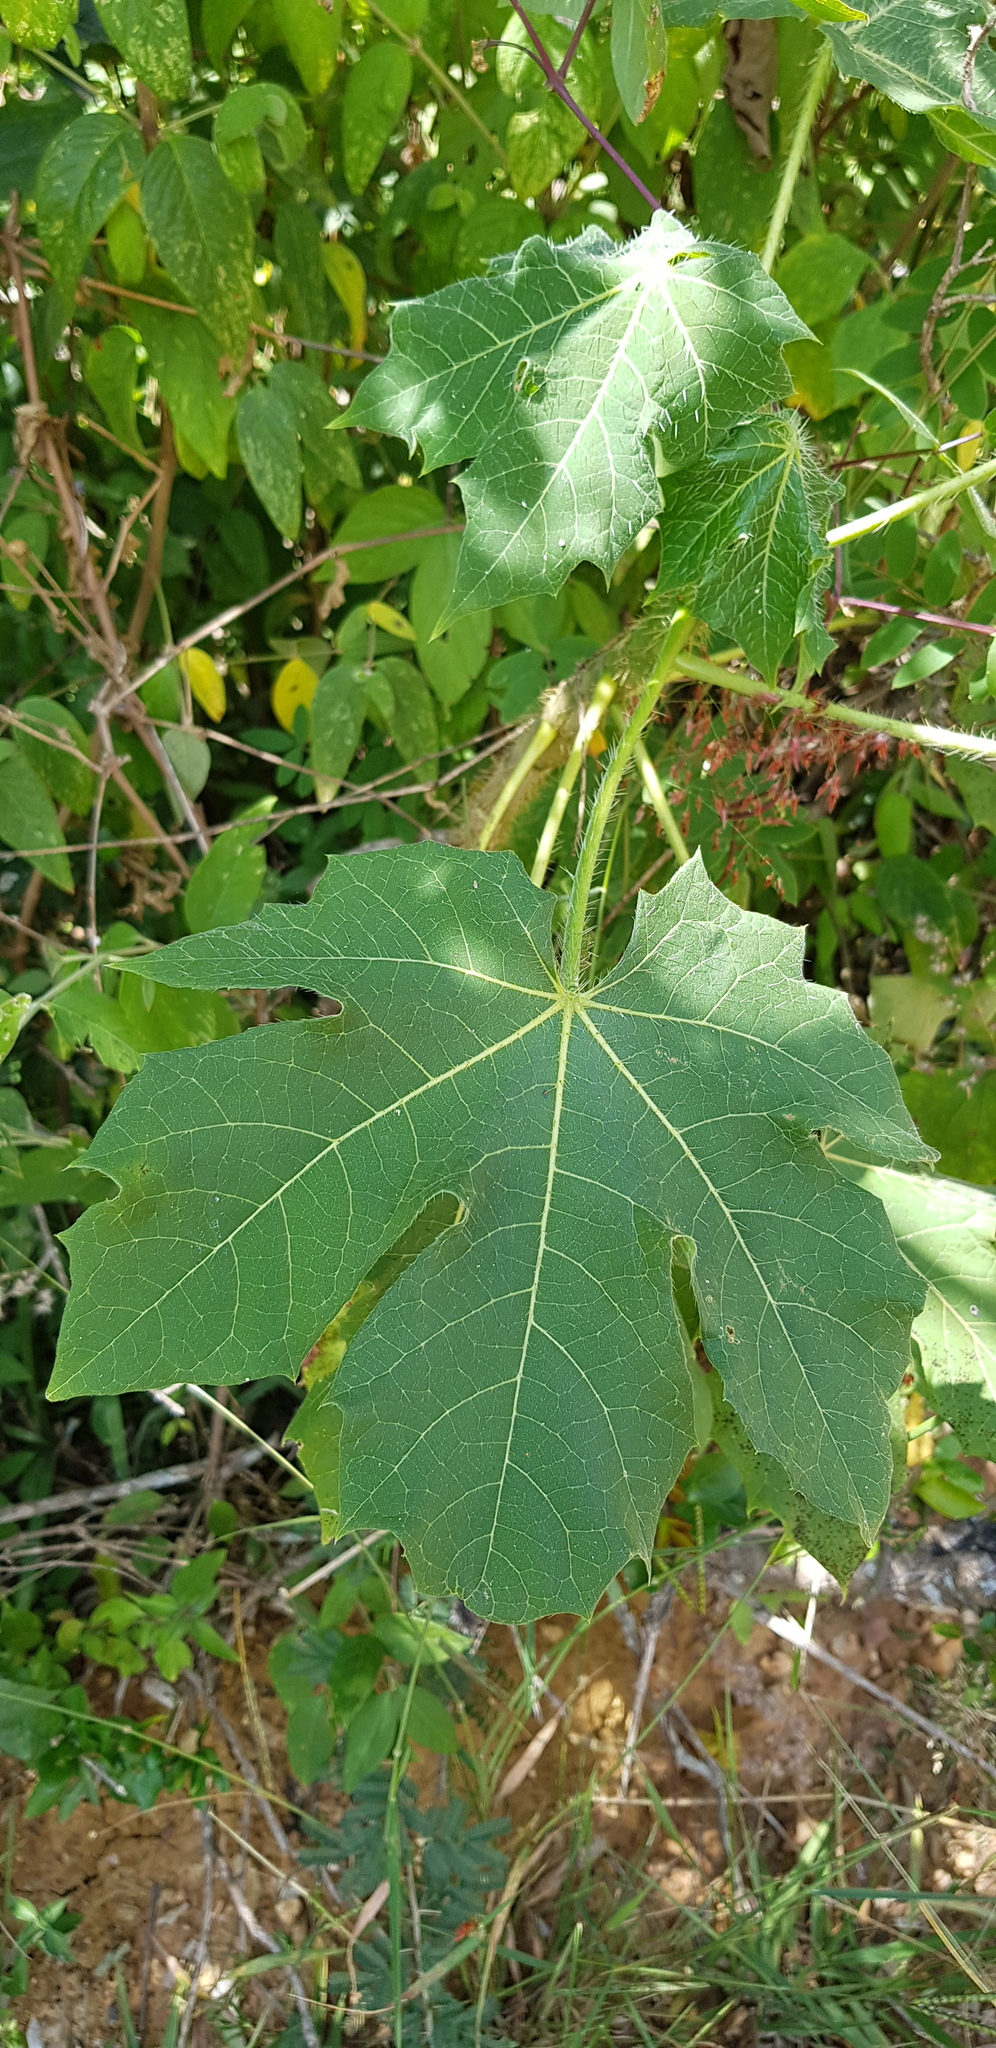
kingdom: Plantae
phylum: Tracheophyta
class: Magnoliopsida
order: Malpighiales
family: Euphorbiaceae
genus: Cnidoscolus
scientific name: Cnidoscolus multilobus
